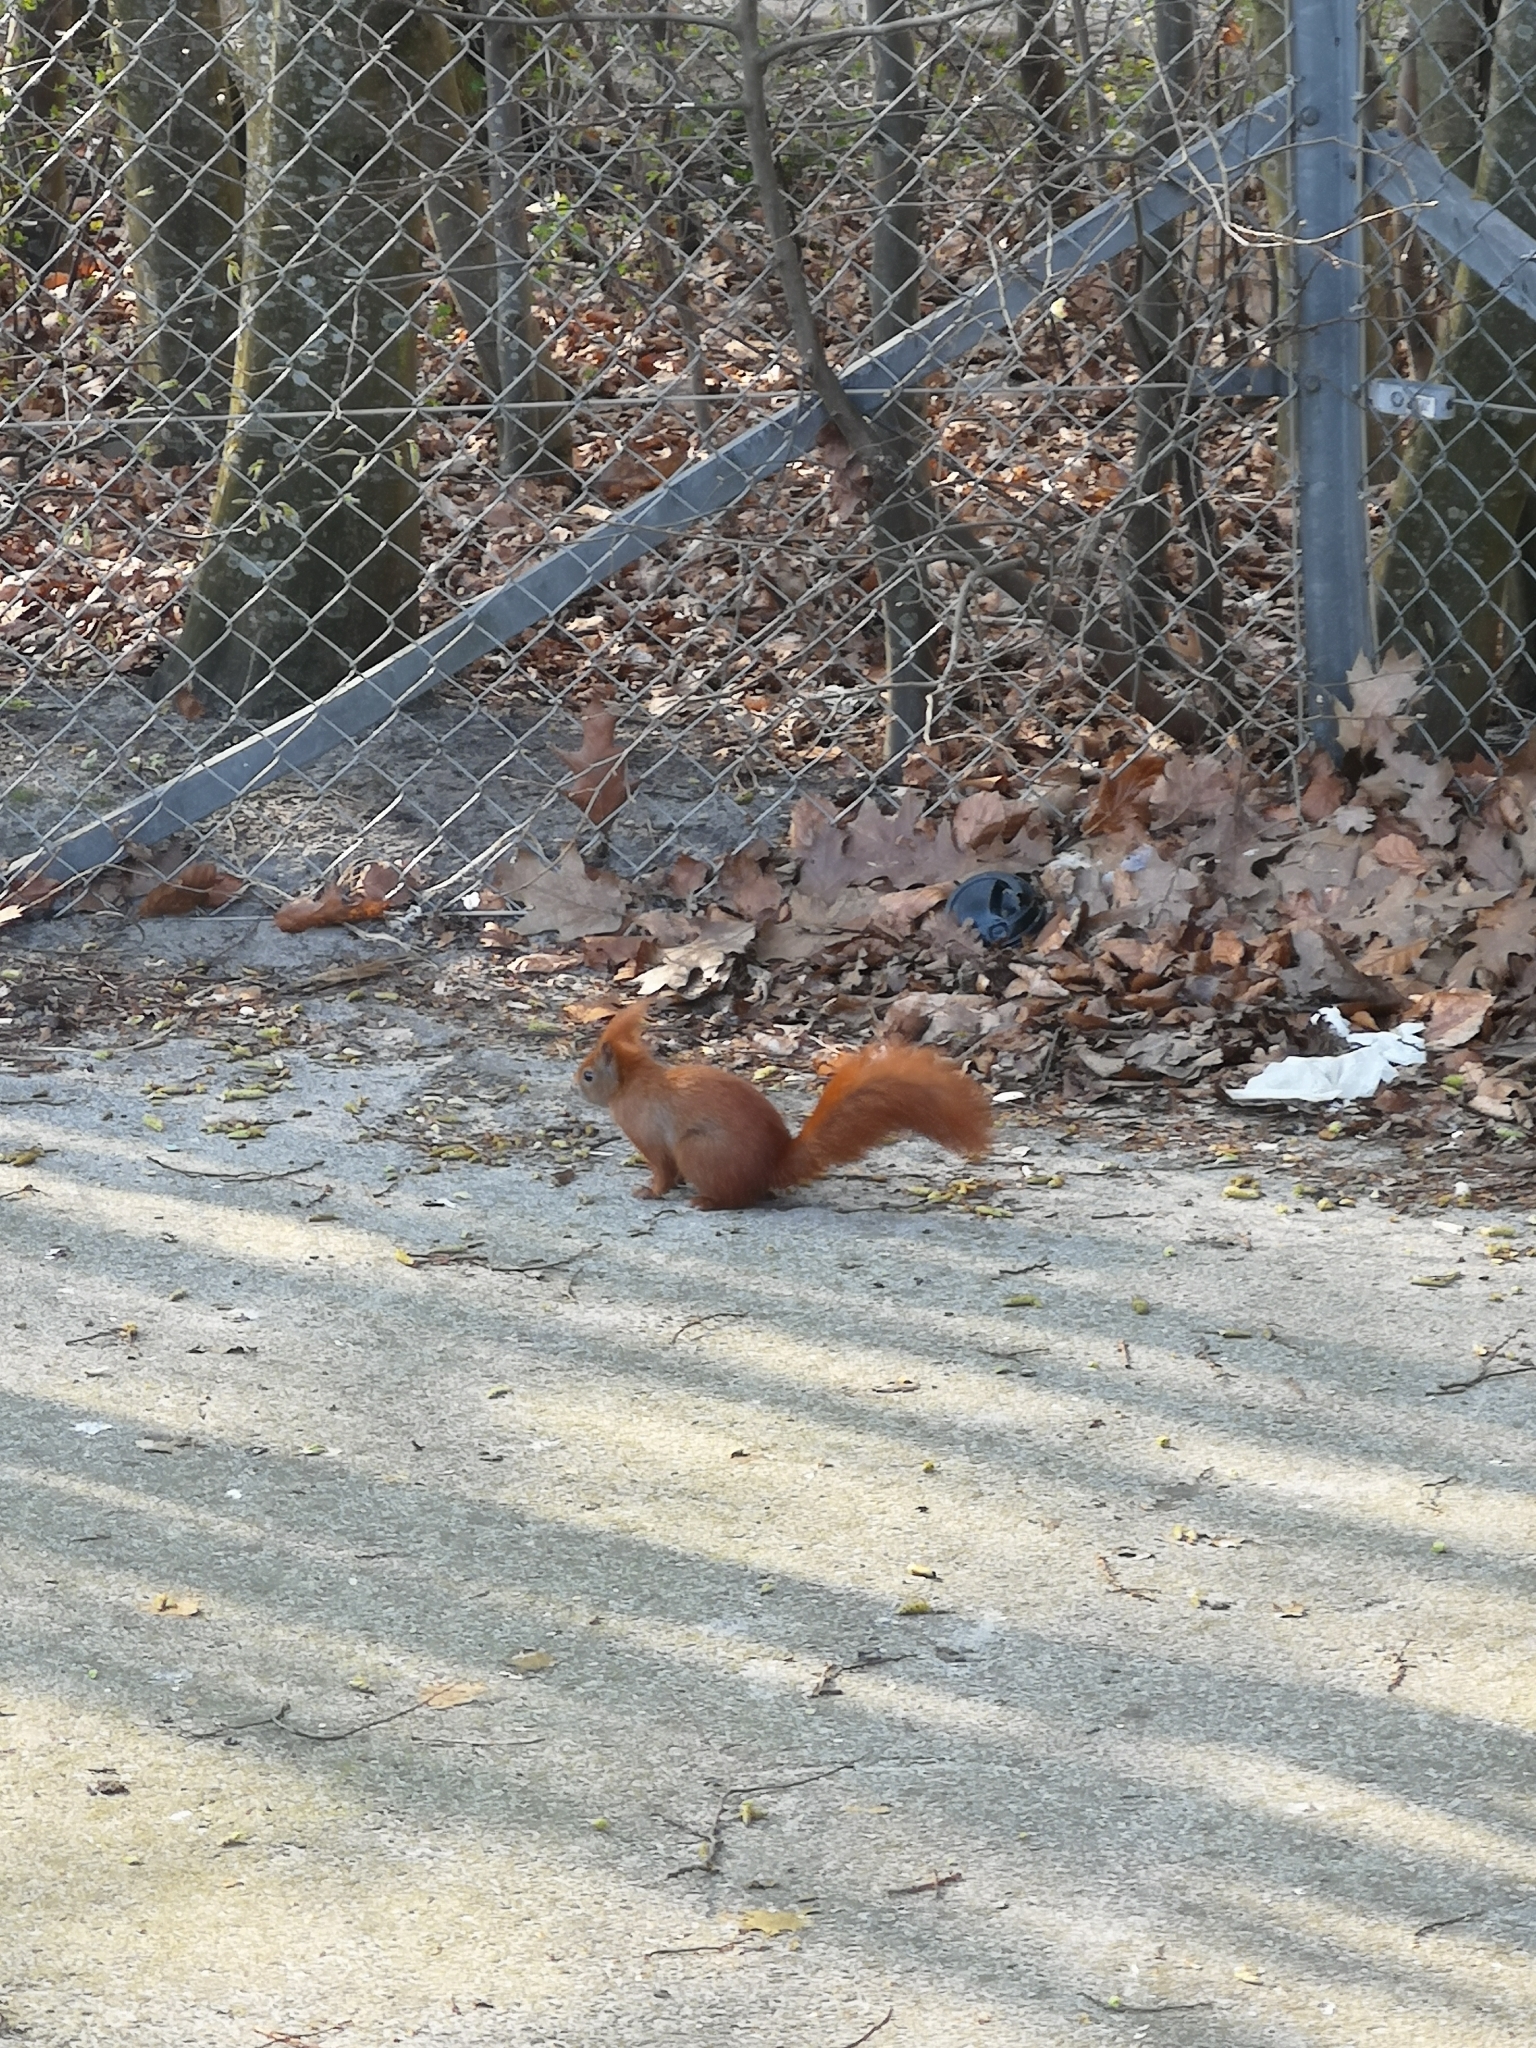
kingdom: Animalia
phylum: Chordata
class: Mammalia
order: Rodentia
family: Sciuridae
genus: Sciurus
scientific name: Sciurus vulgaris
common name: Eurasian red squirrel
